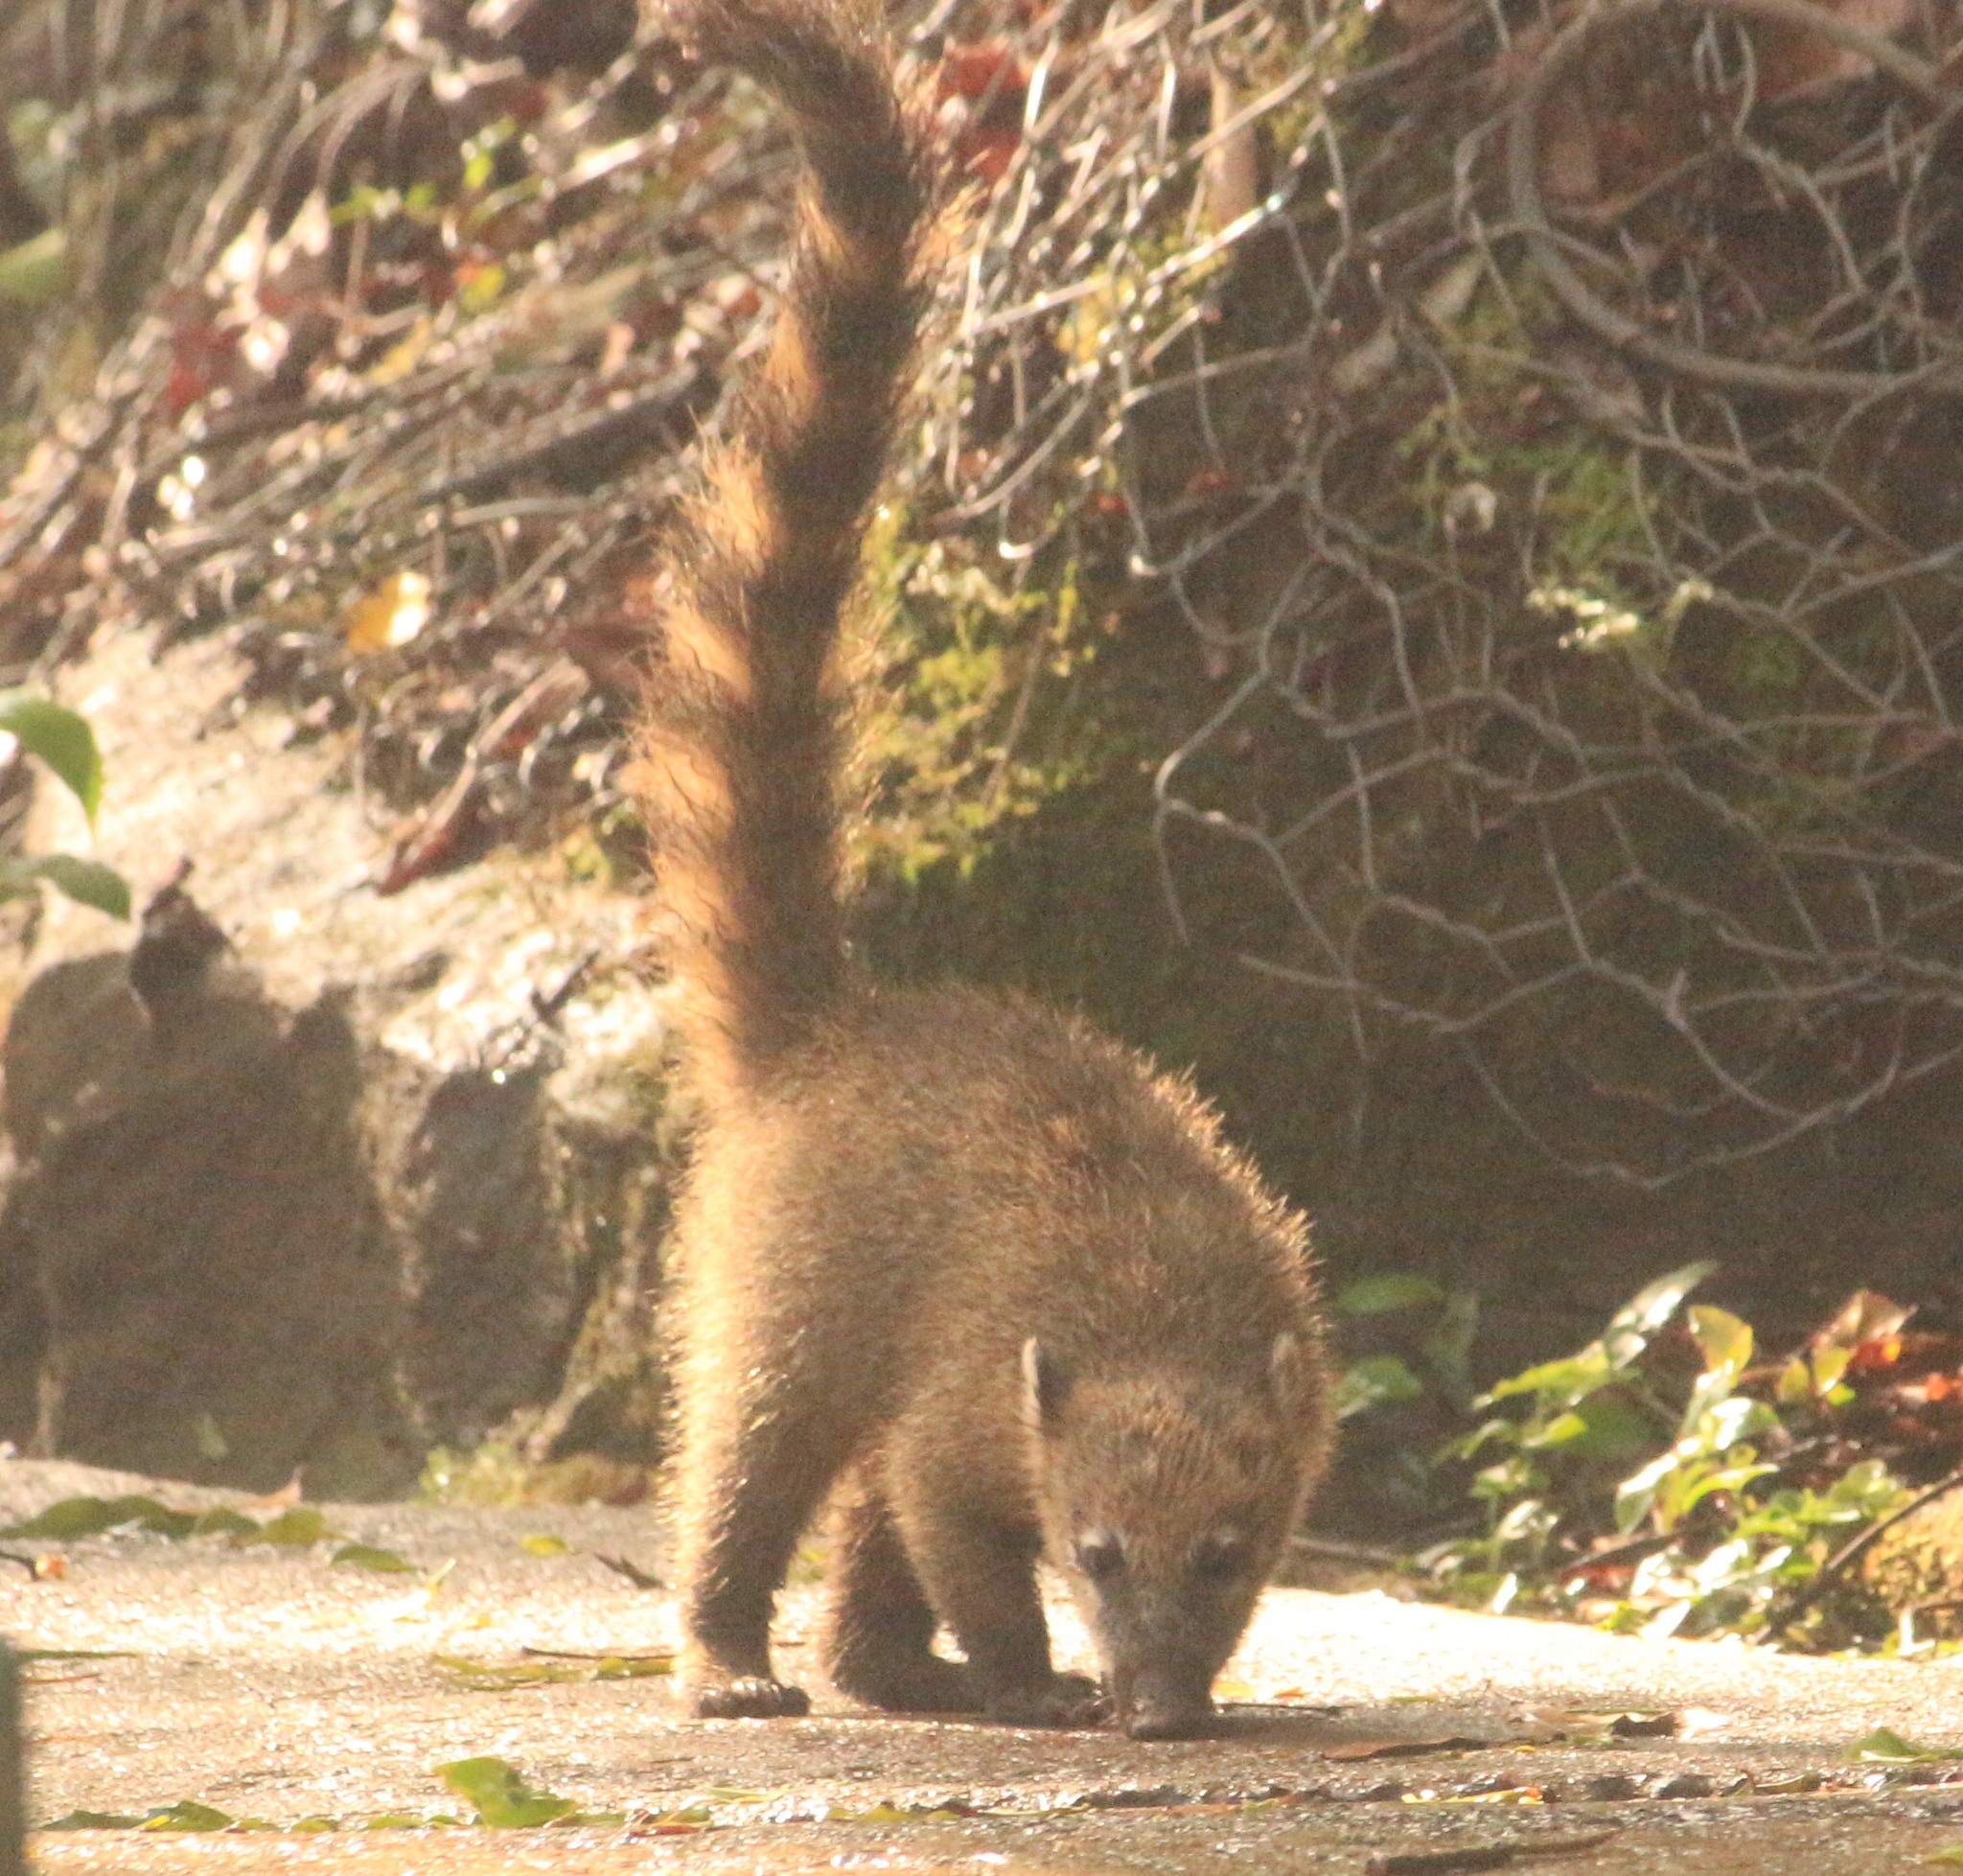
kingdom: Animalia
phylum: Chordata
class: Mammalia
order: Carnivora
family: Procyonidae
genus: Nasua
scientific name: Nasua nasua
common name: South american coati
